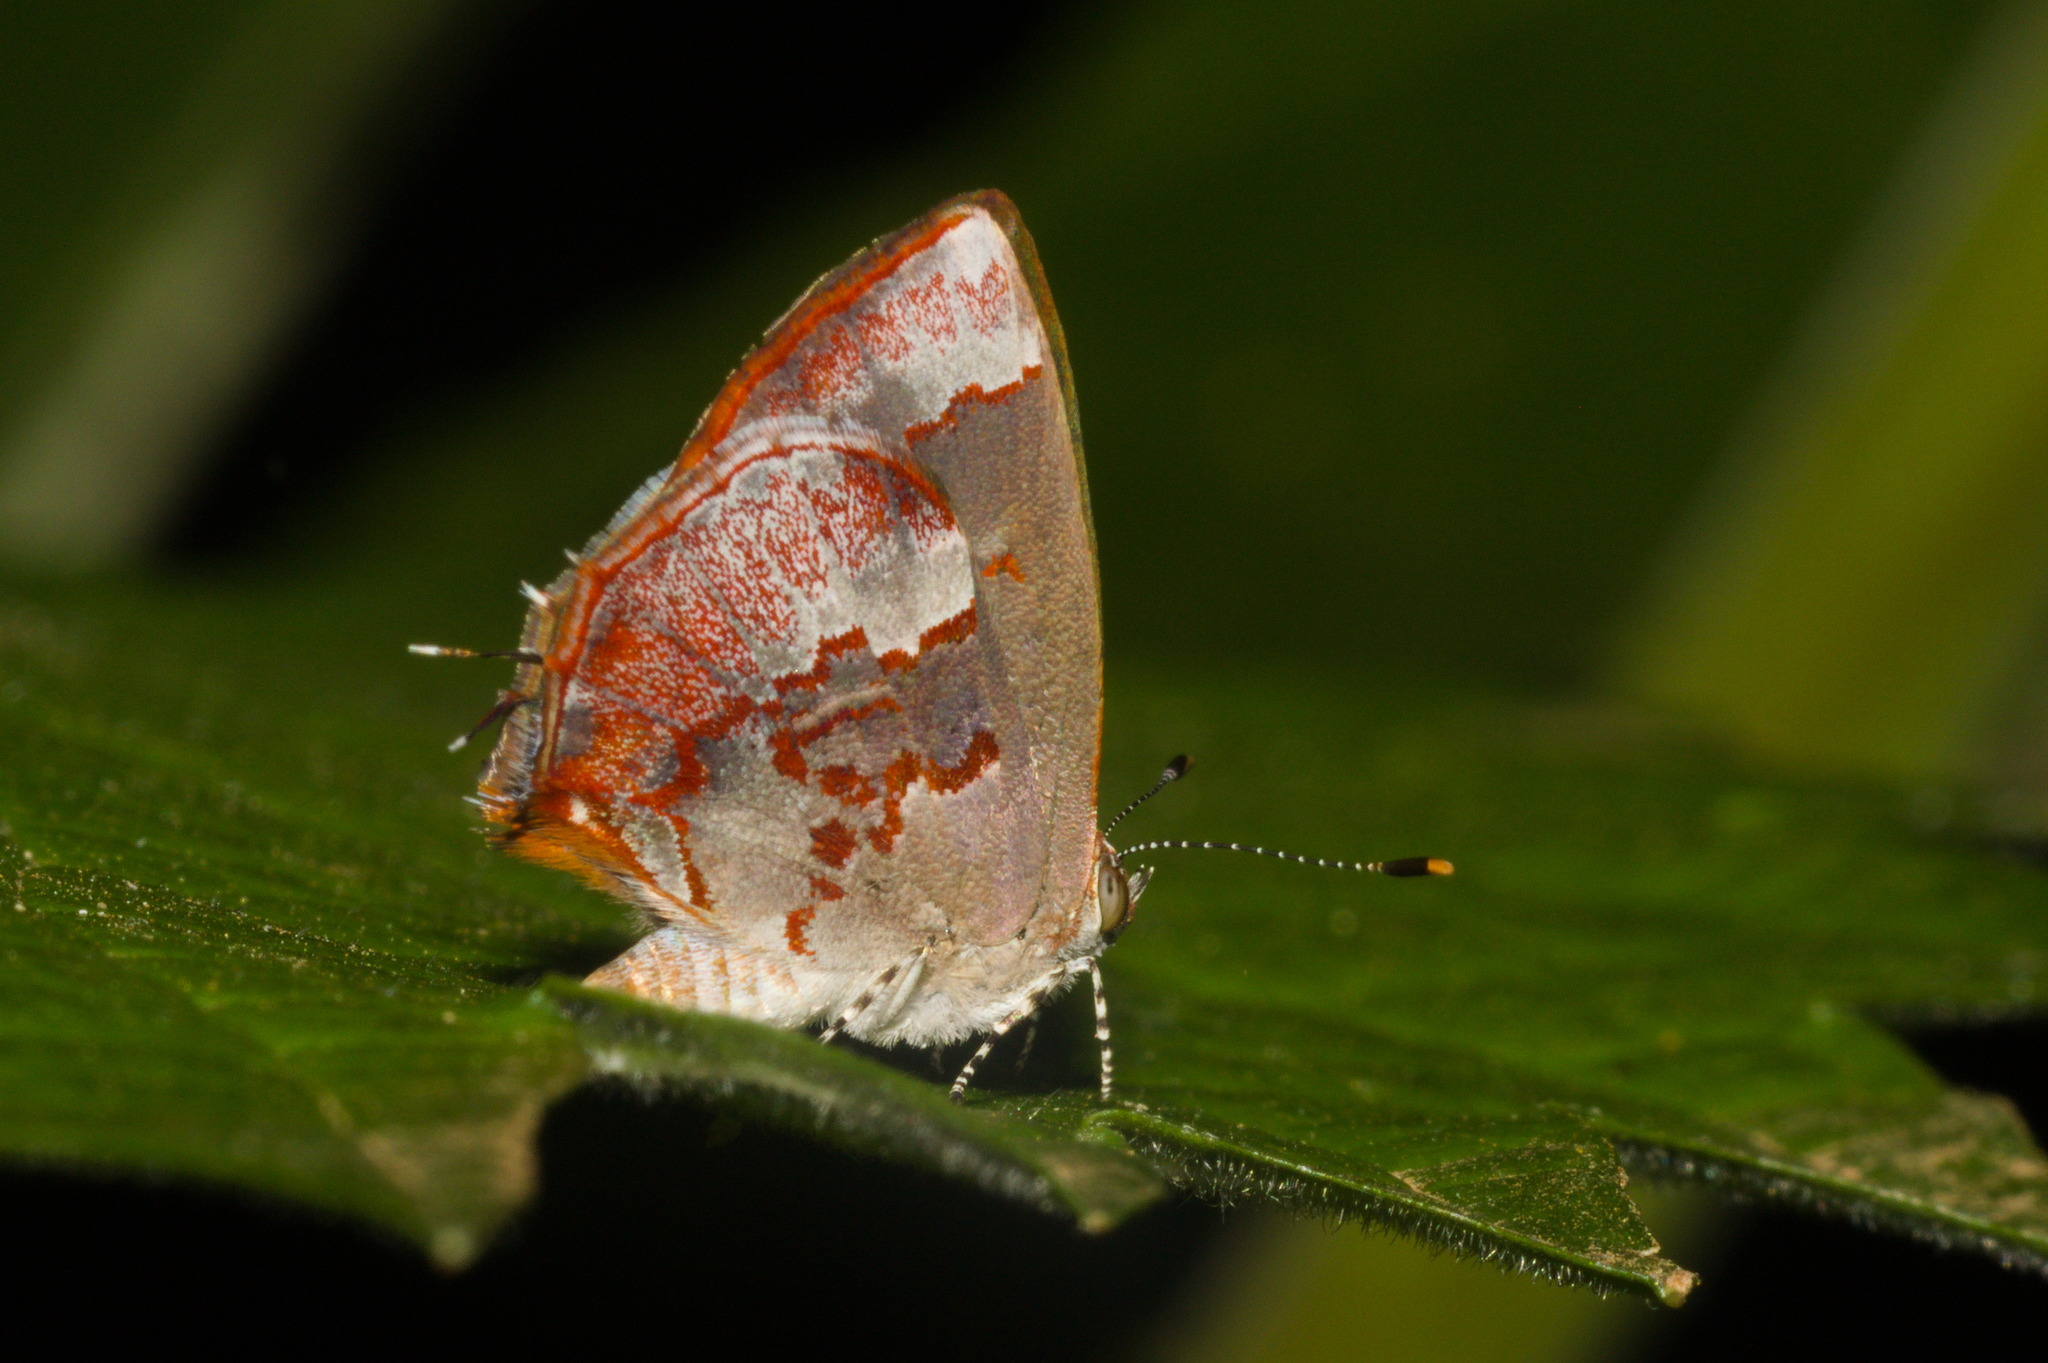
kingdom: Animalia
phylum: Arthropoda
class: Insecta
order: Lepidoptera
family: Lycaenidae
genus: Thecla
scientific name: Thecla cruenta
